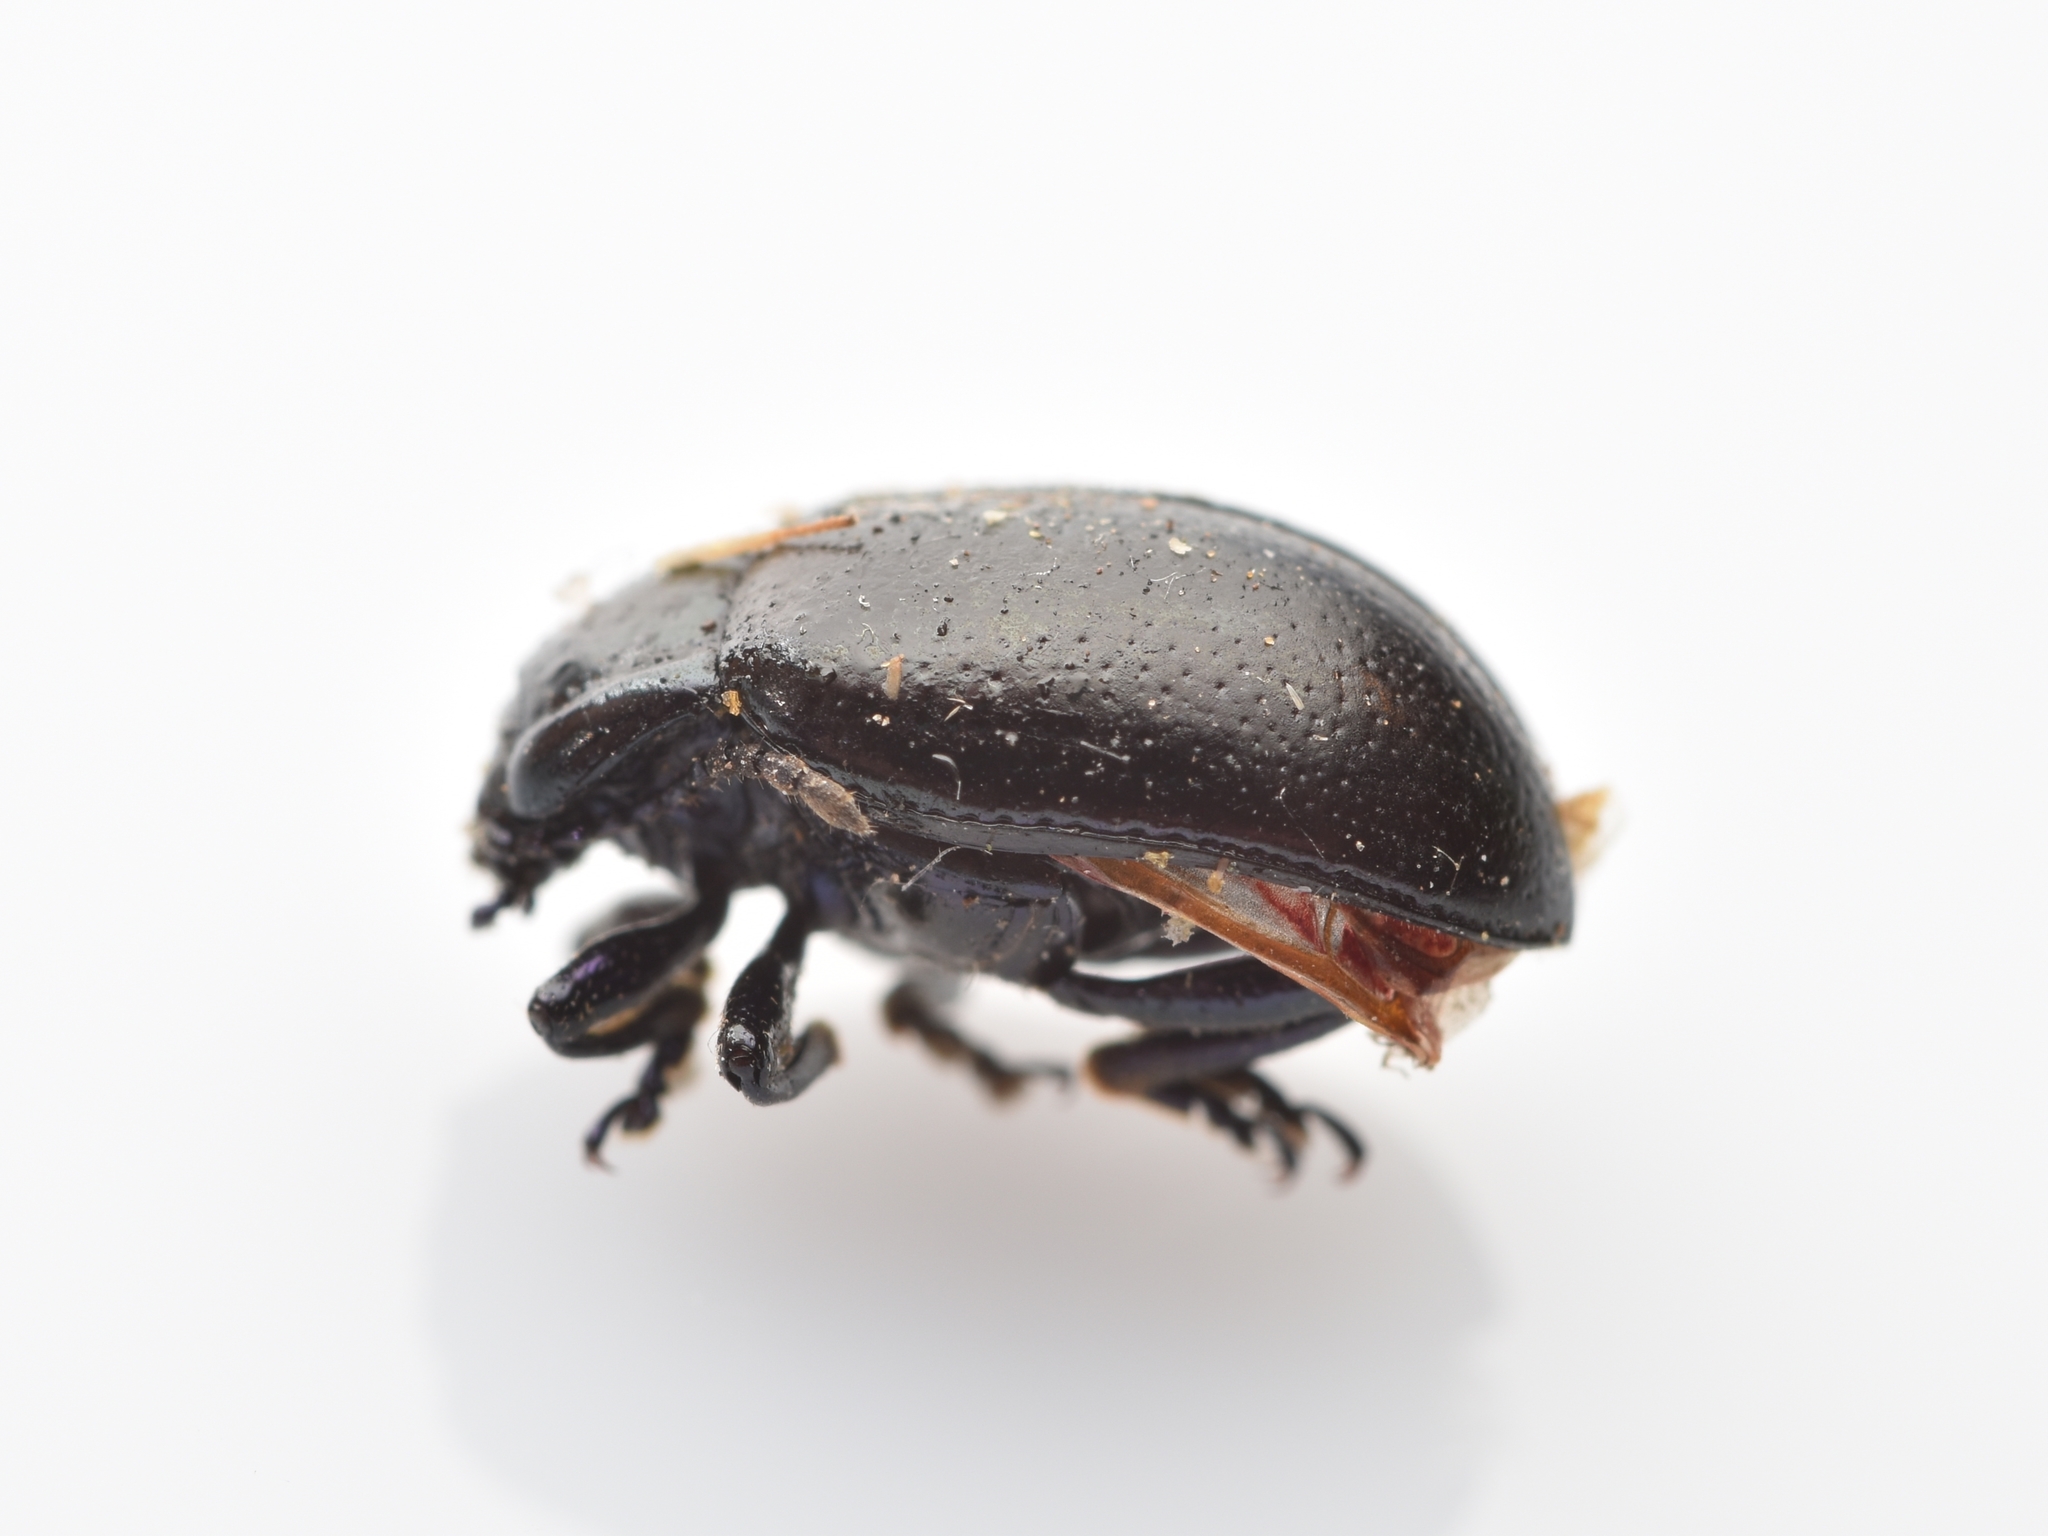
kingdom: Animalia
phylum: Arthropoda
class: Insecta
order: Coleoptera
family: Chrysomelidae
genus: Chrysolina
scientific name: Chrysolina auripennis
